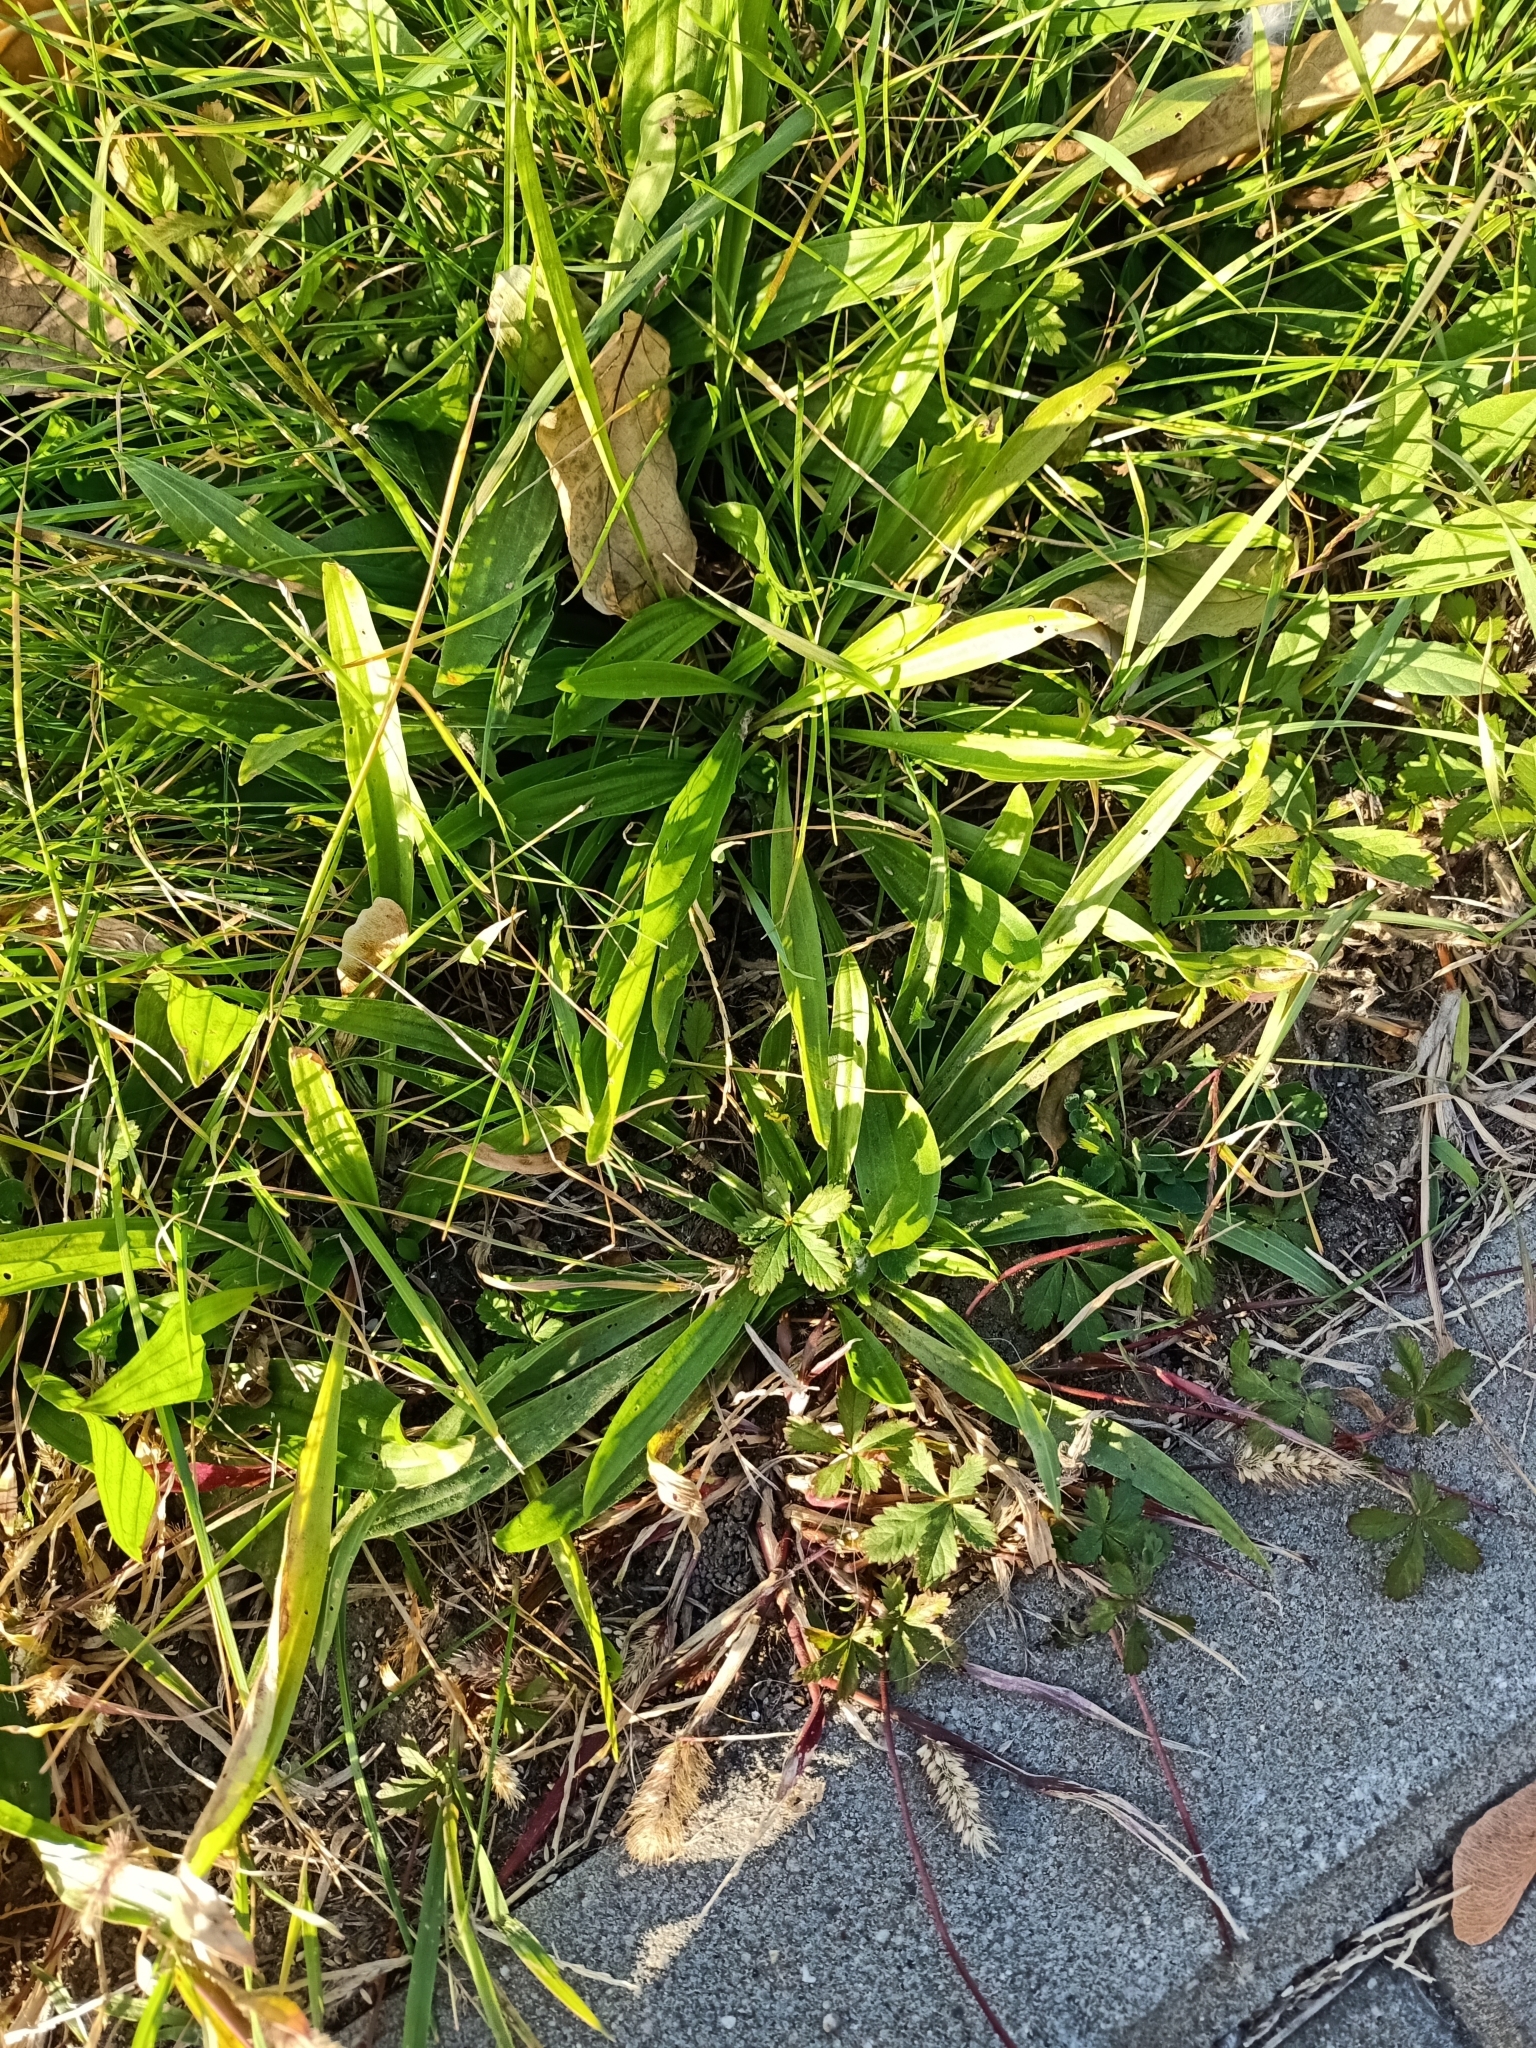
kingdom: Plantae
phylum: Tracheophyta
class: Magnoliopsida
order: Lamiales
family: Plantaginaceae
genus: Plantago
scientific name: Plantago lanceolata
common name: Ribwort plantain
